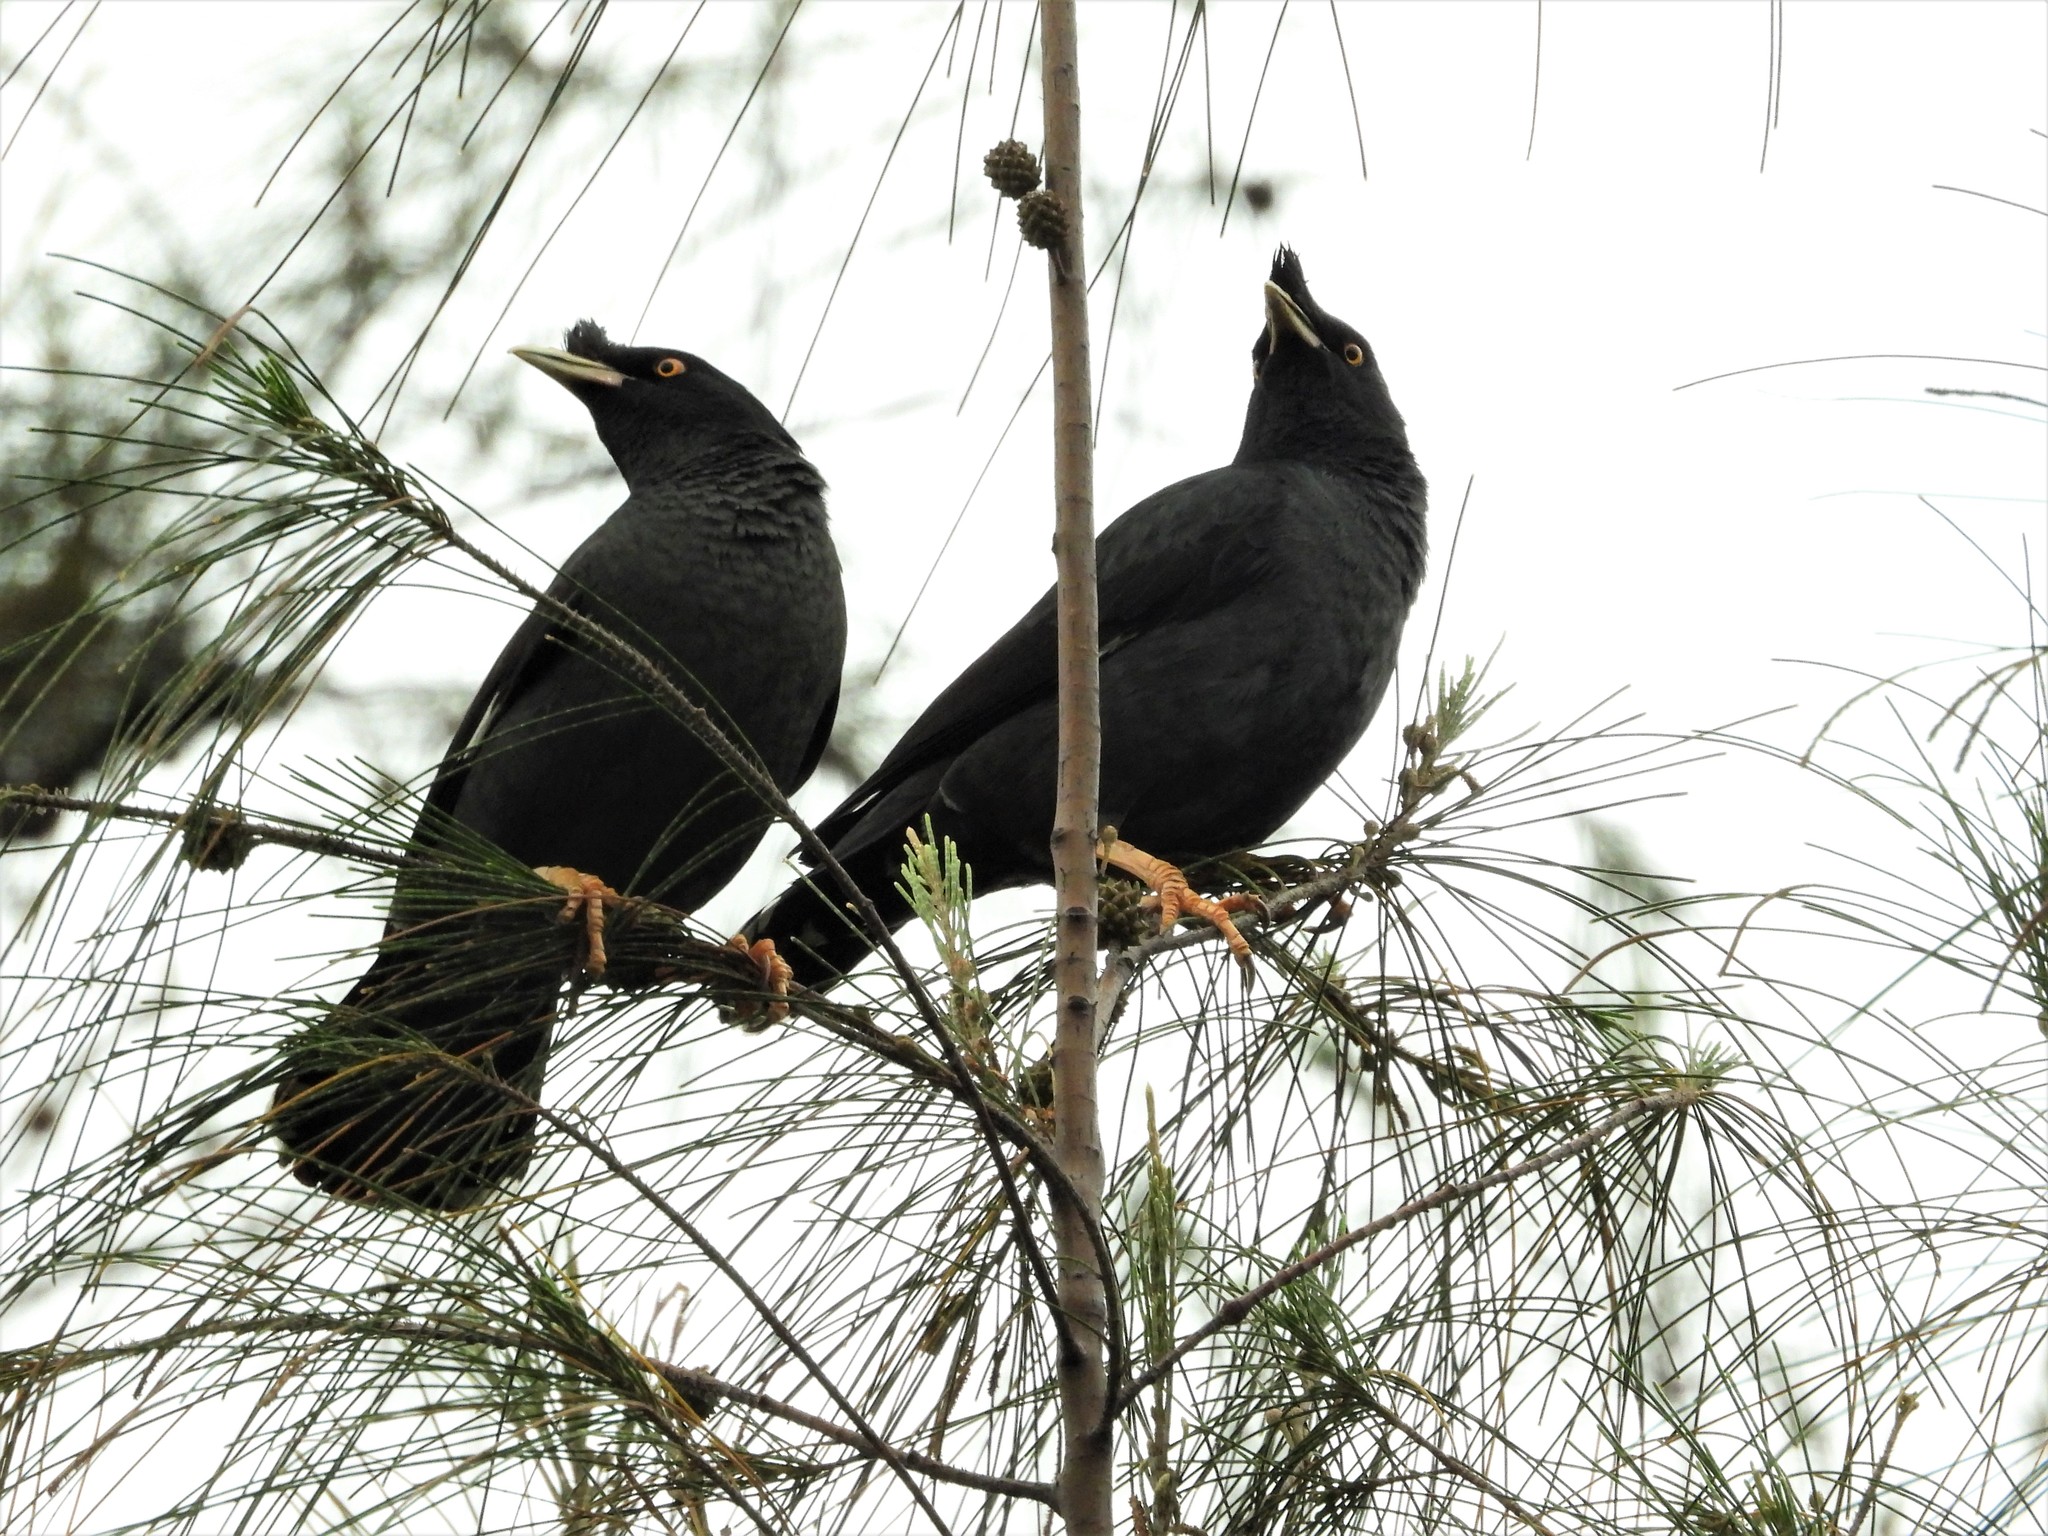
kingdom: Animalia
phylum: Chordata
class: Aves
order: Passeriformes
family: Sturnidae
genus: Acridotheres
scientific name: Acridotheres cristatellus
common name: Crested myna
